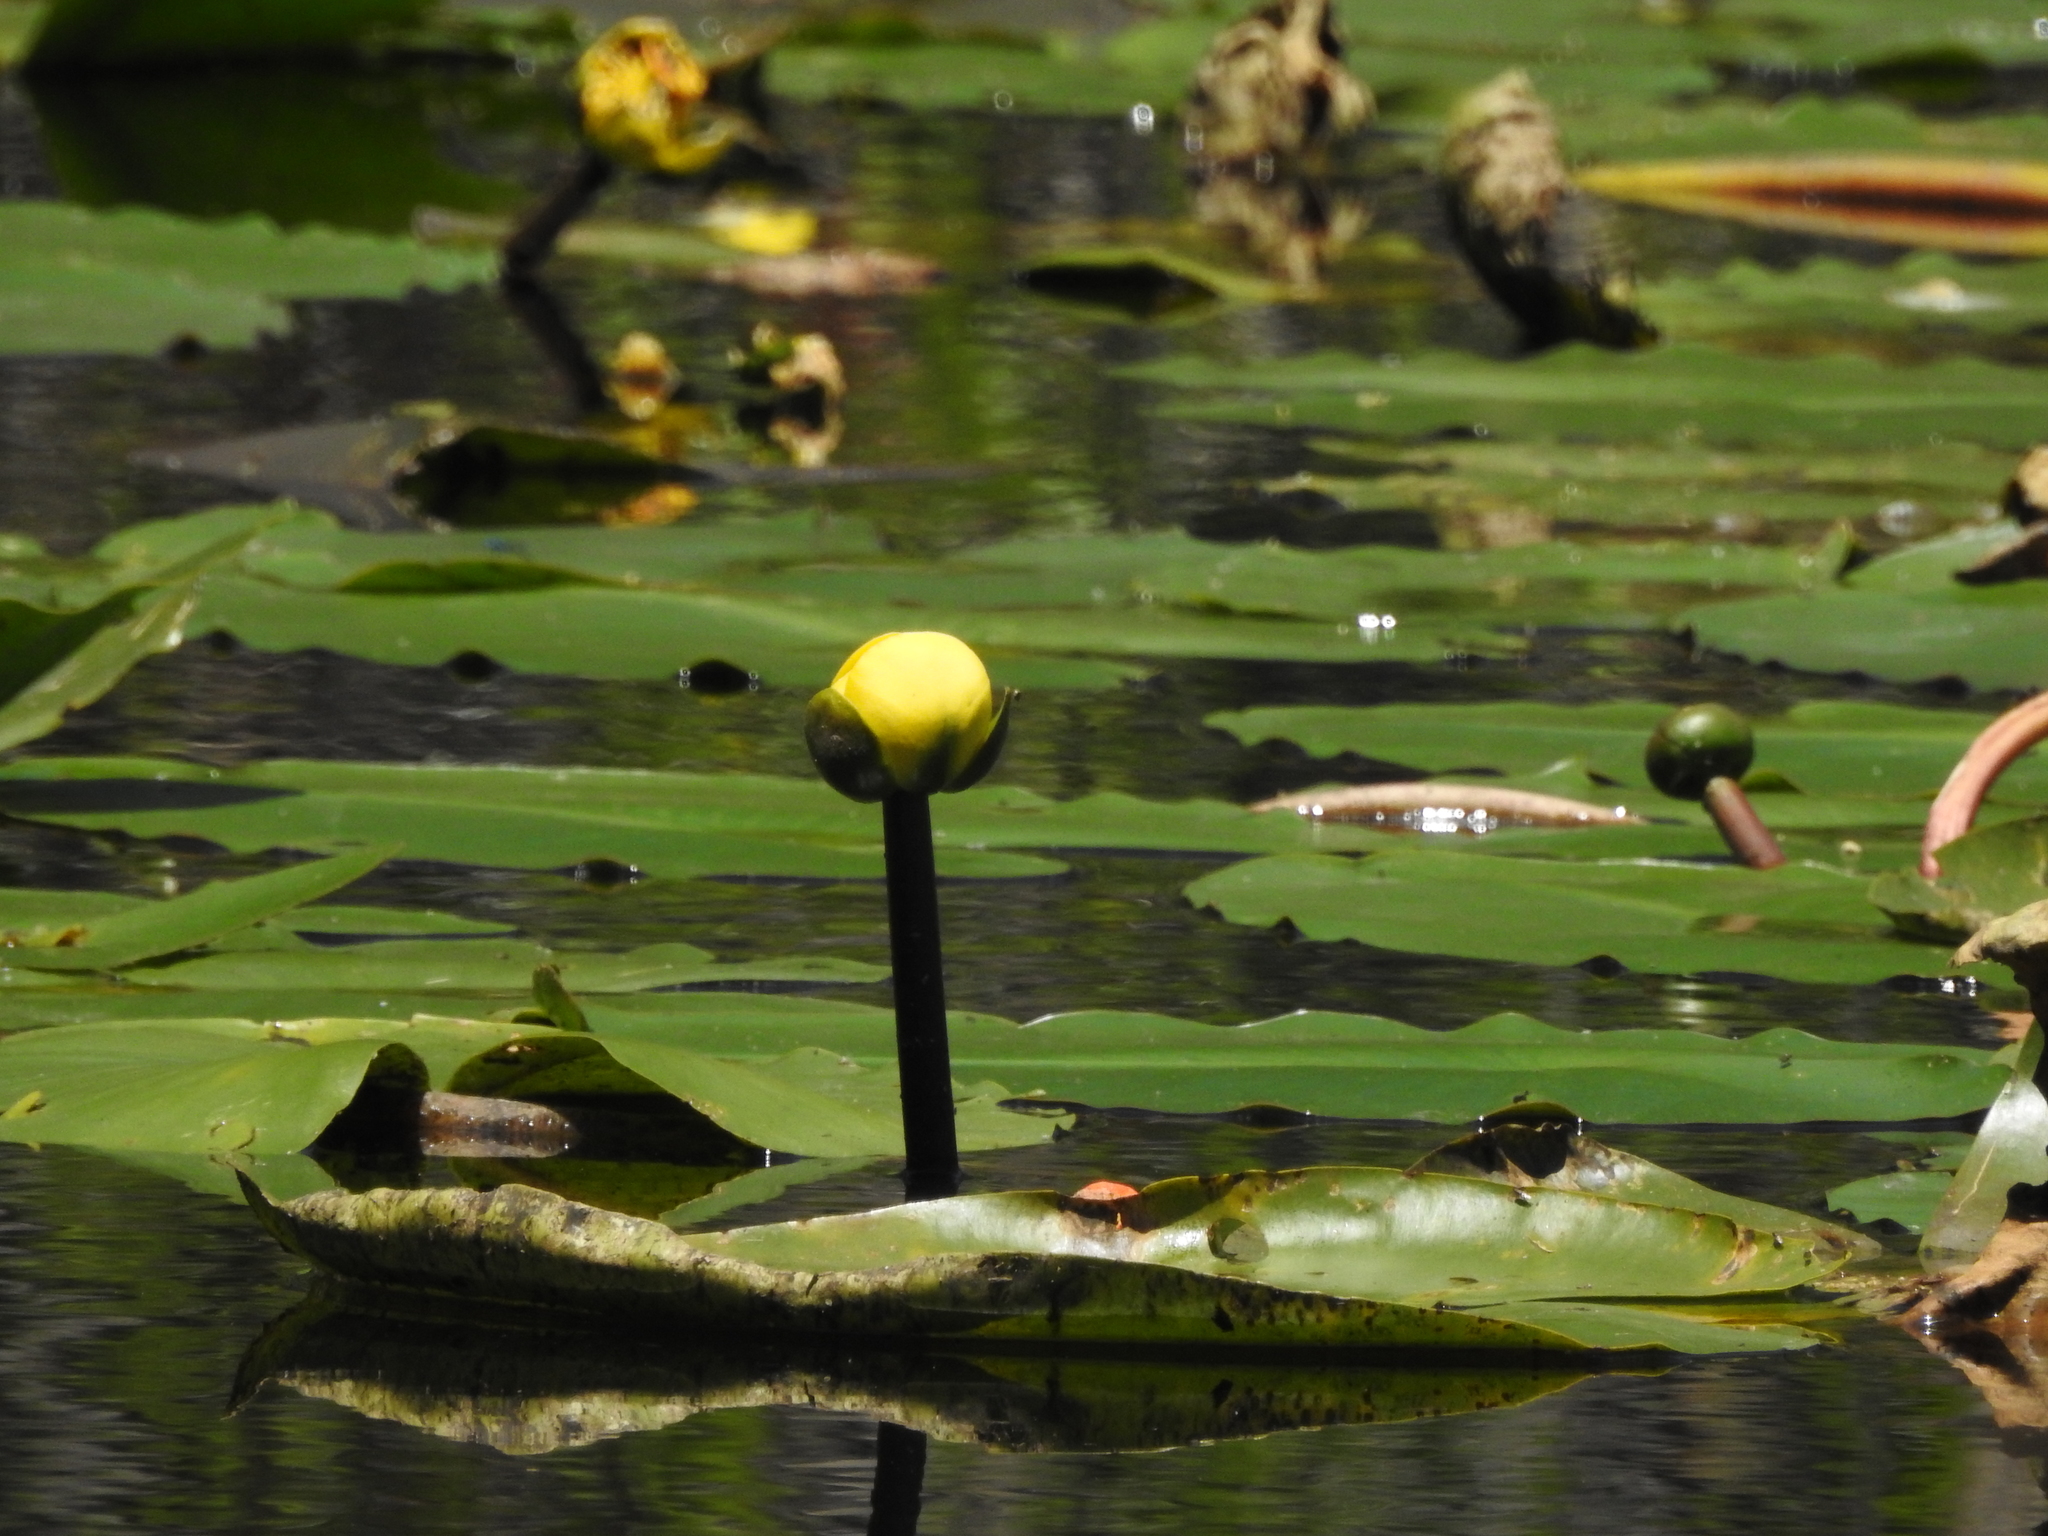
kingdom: Plantae
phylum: Tracheophyta
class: Magnoliopsida
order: Nymphaeales
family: Nymphaeaceae
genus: Nuphar
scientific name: Nuphar advena
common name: Spatter-dock
